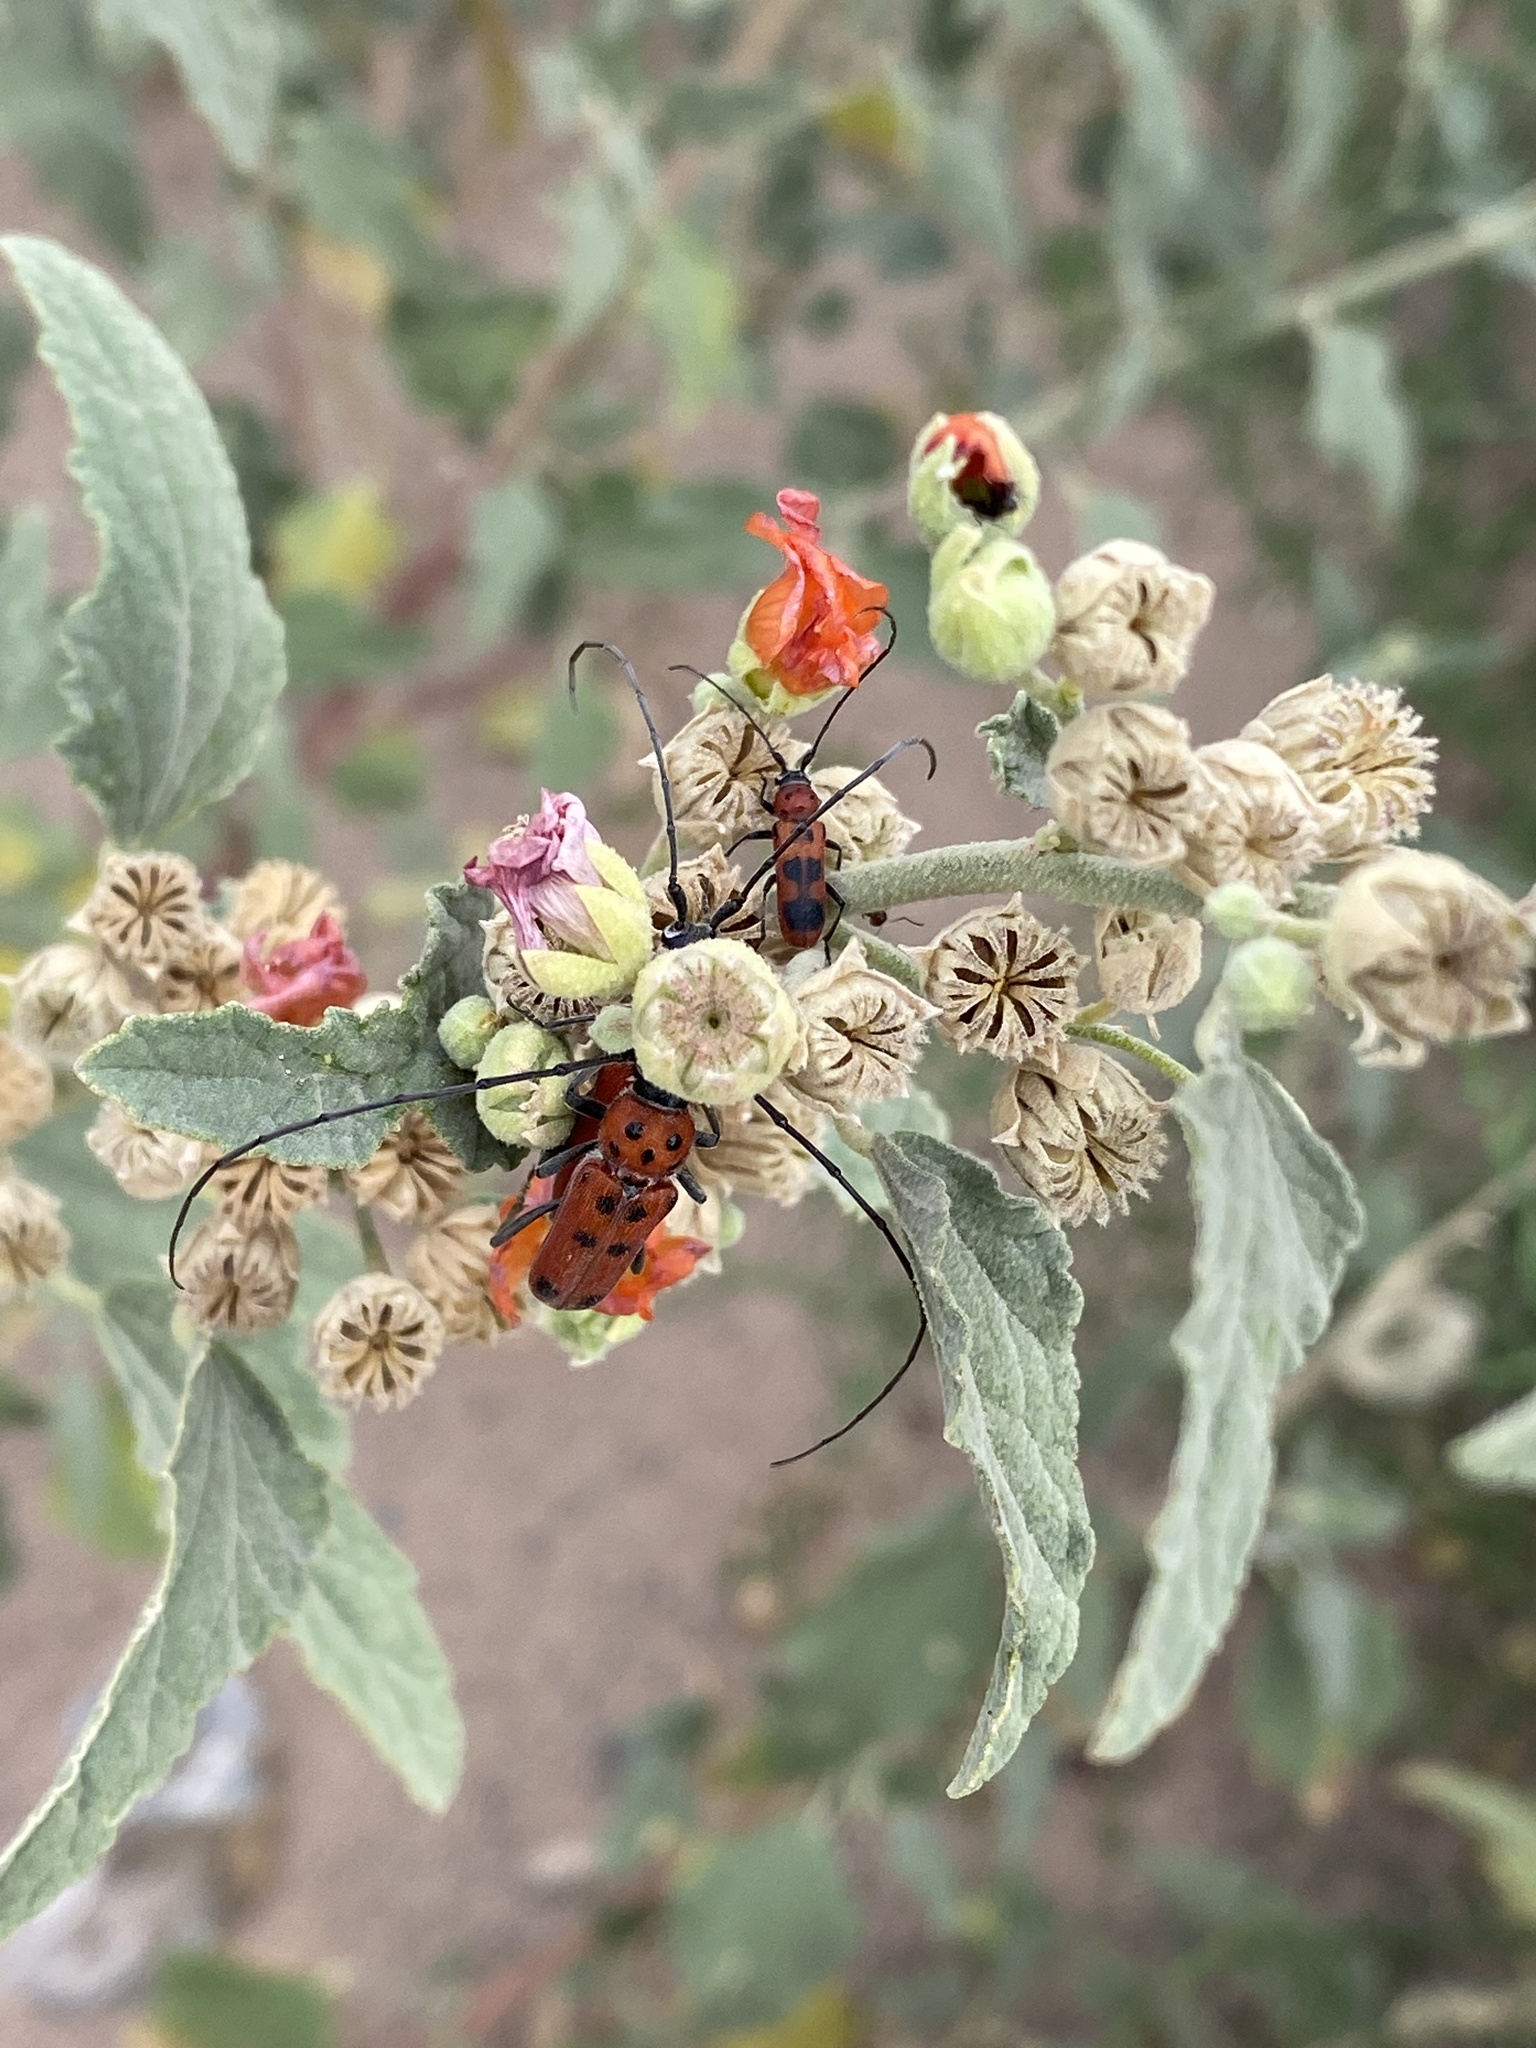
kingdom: Animalia
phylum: Arthropoda
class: Insecta
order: Coleoptera
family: Cerambycidae
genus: Tylosis
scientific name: Tylosis maculatus
